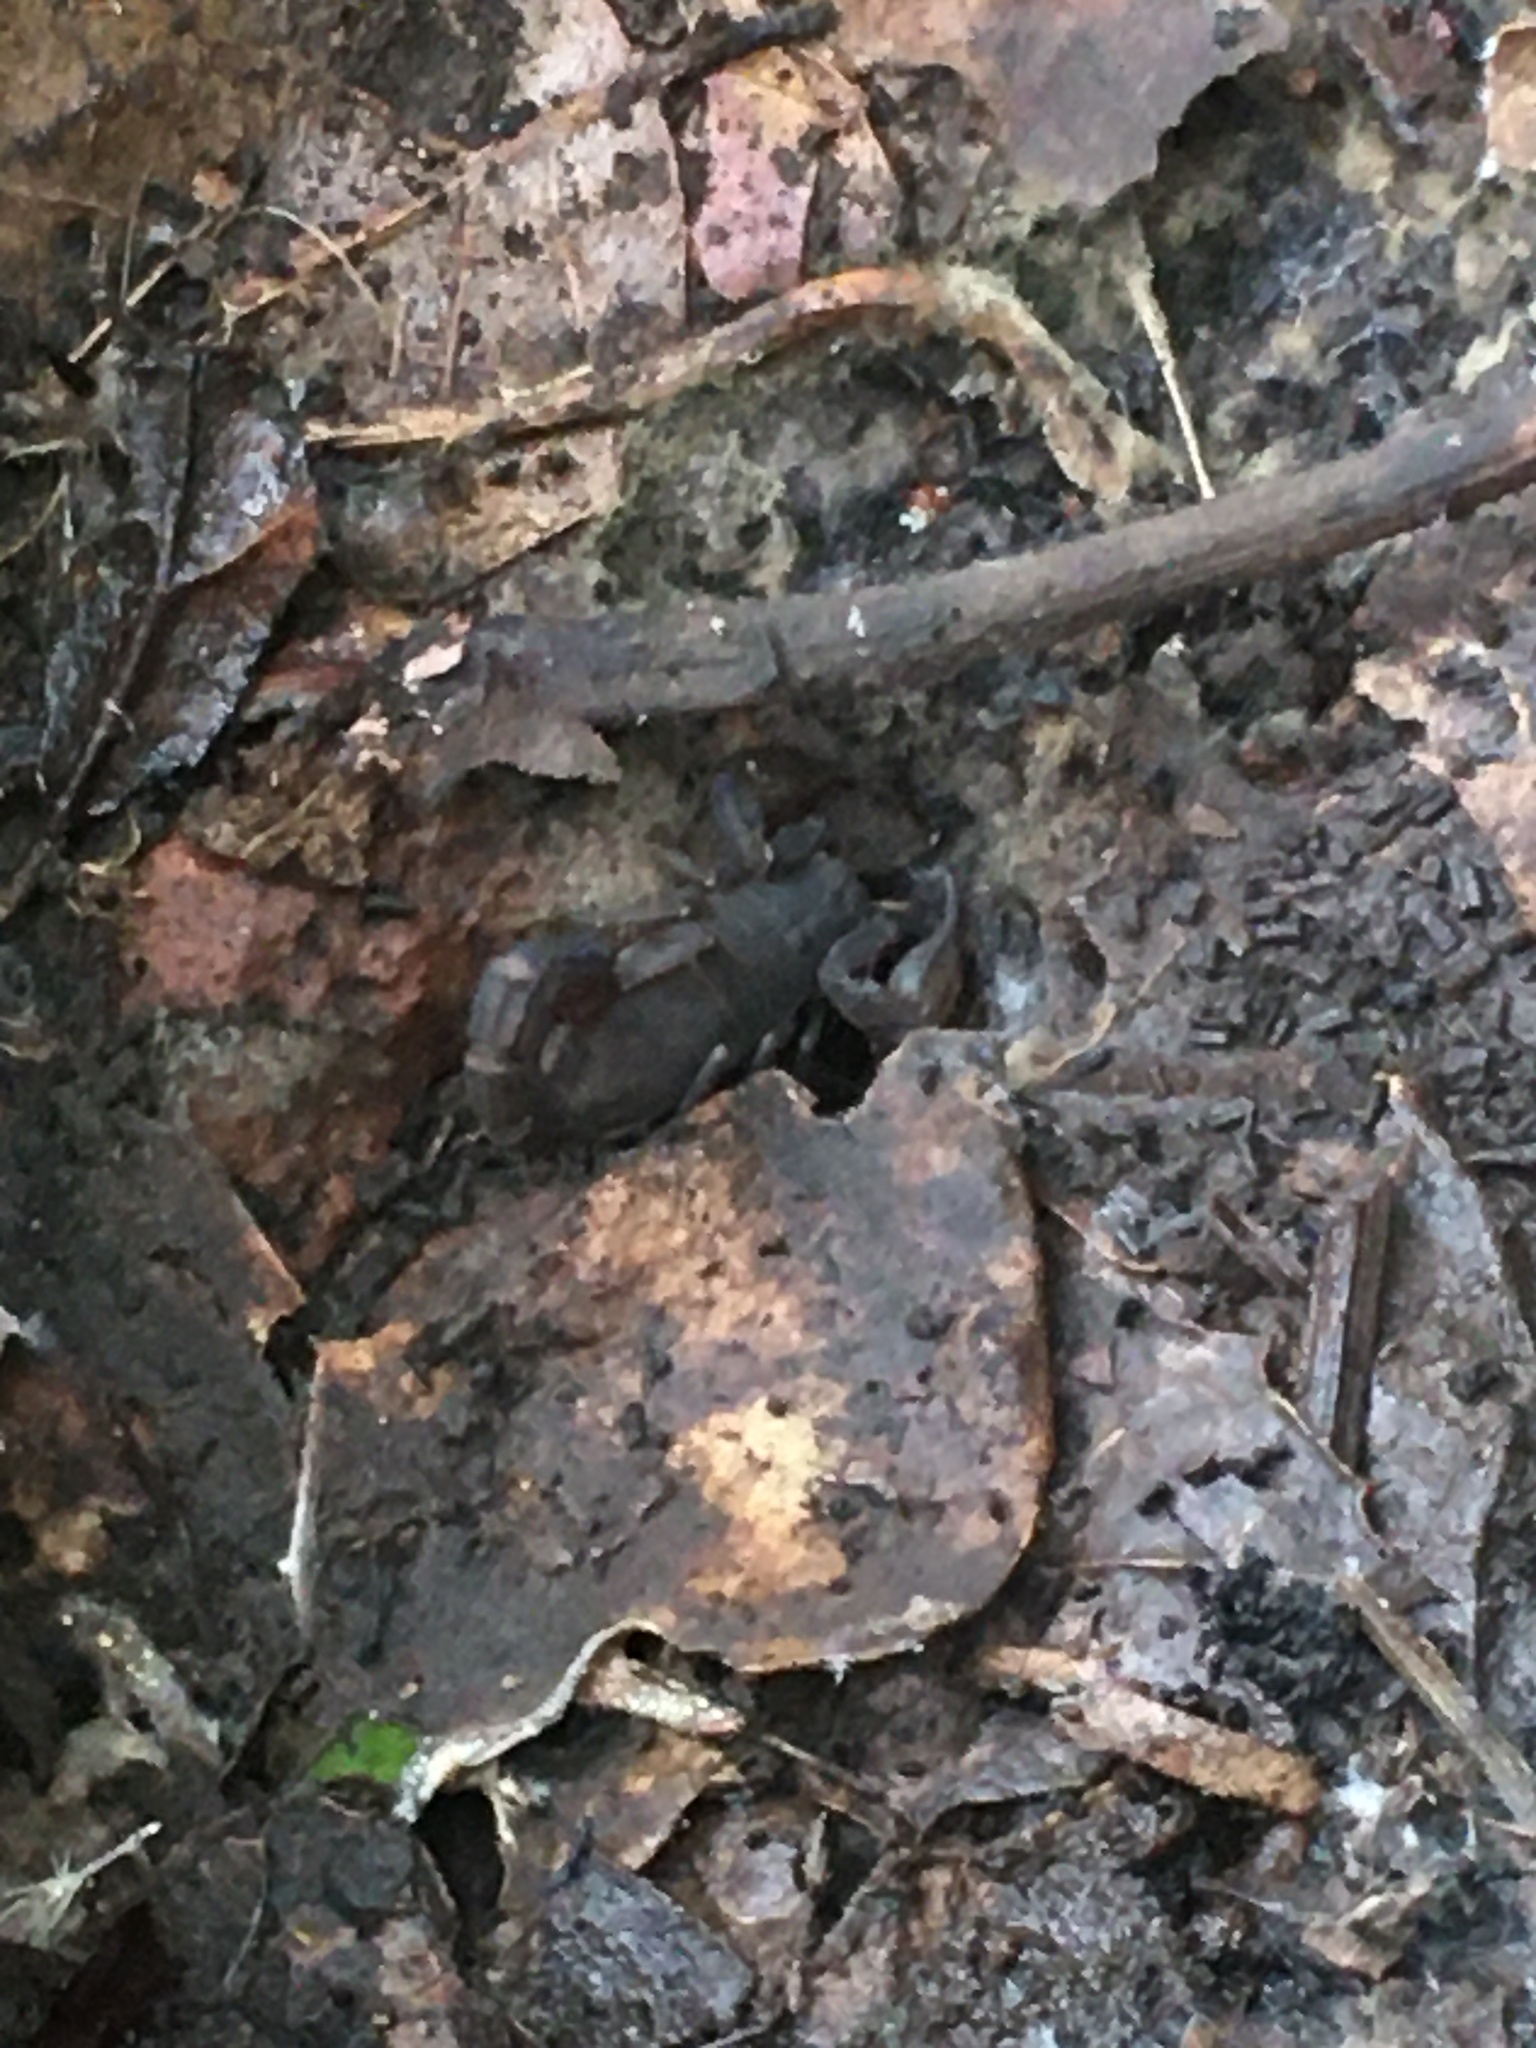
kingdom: Animalia
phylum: Arthropoda
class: Arachnida
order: Scorpiones
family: Vaejovidae
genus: Catalinia
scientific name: Catalinia thompsoni
